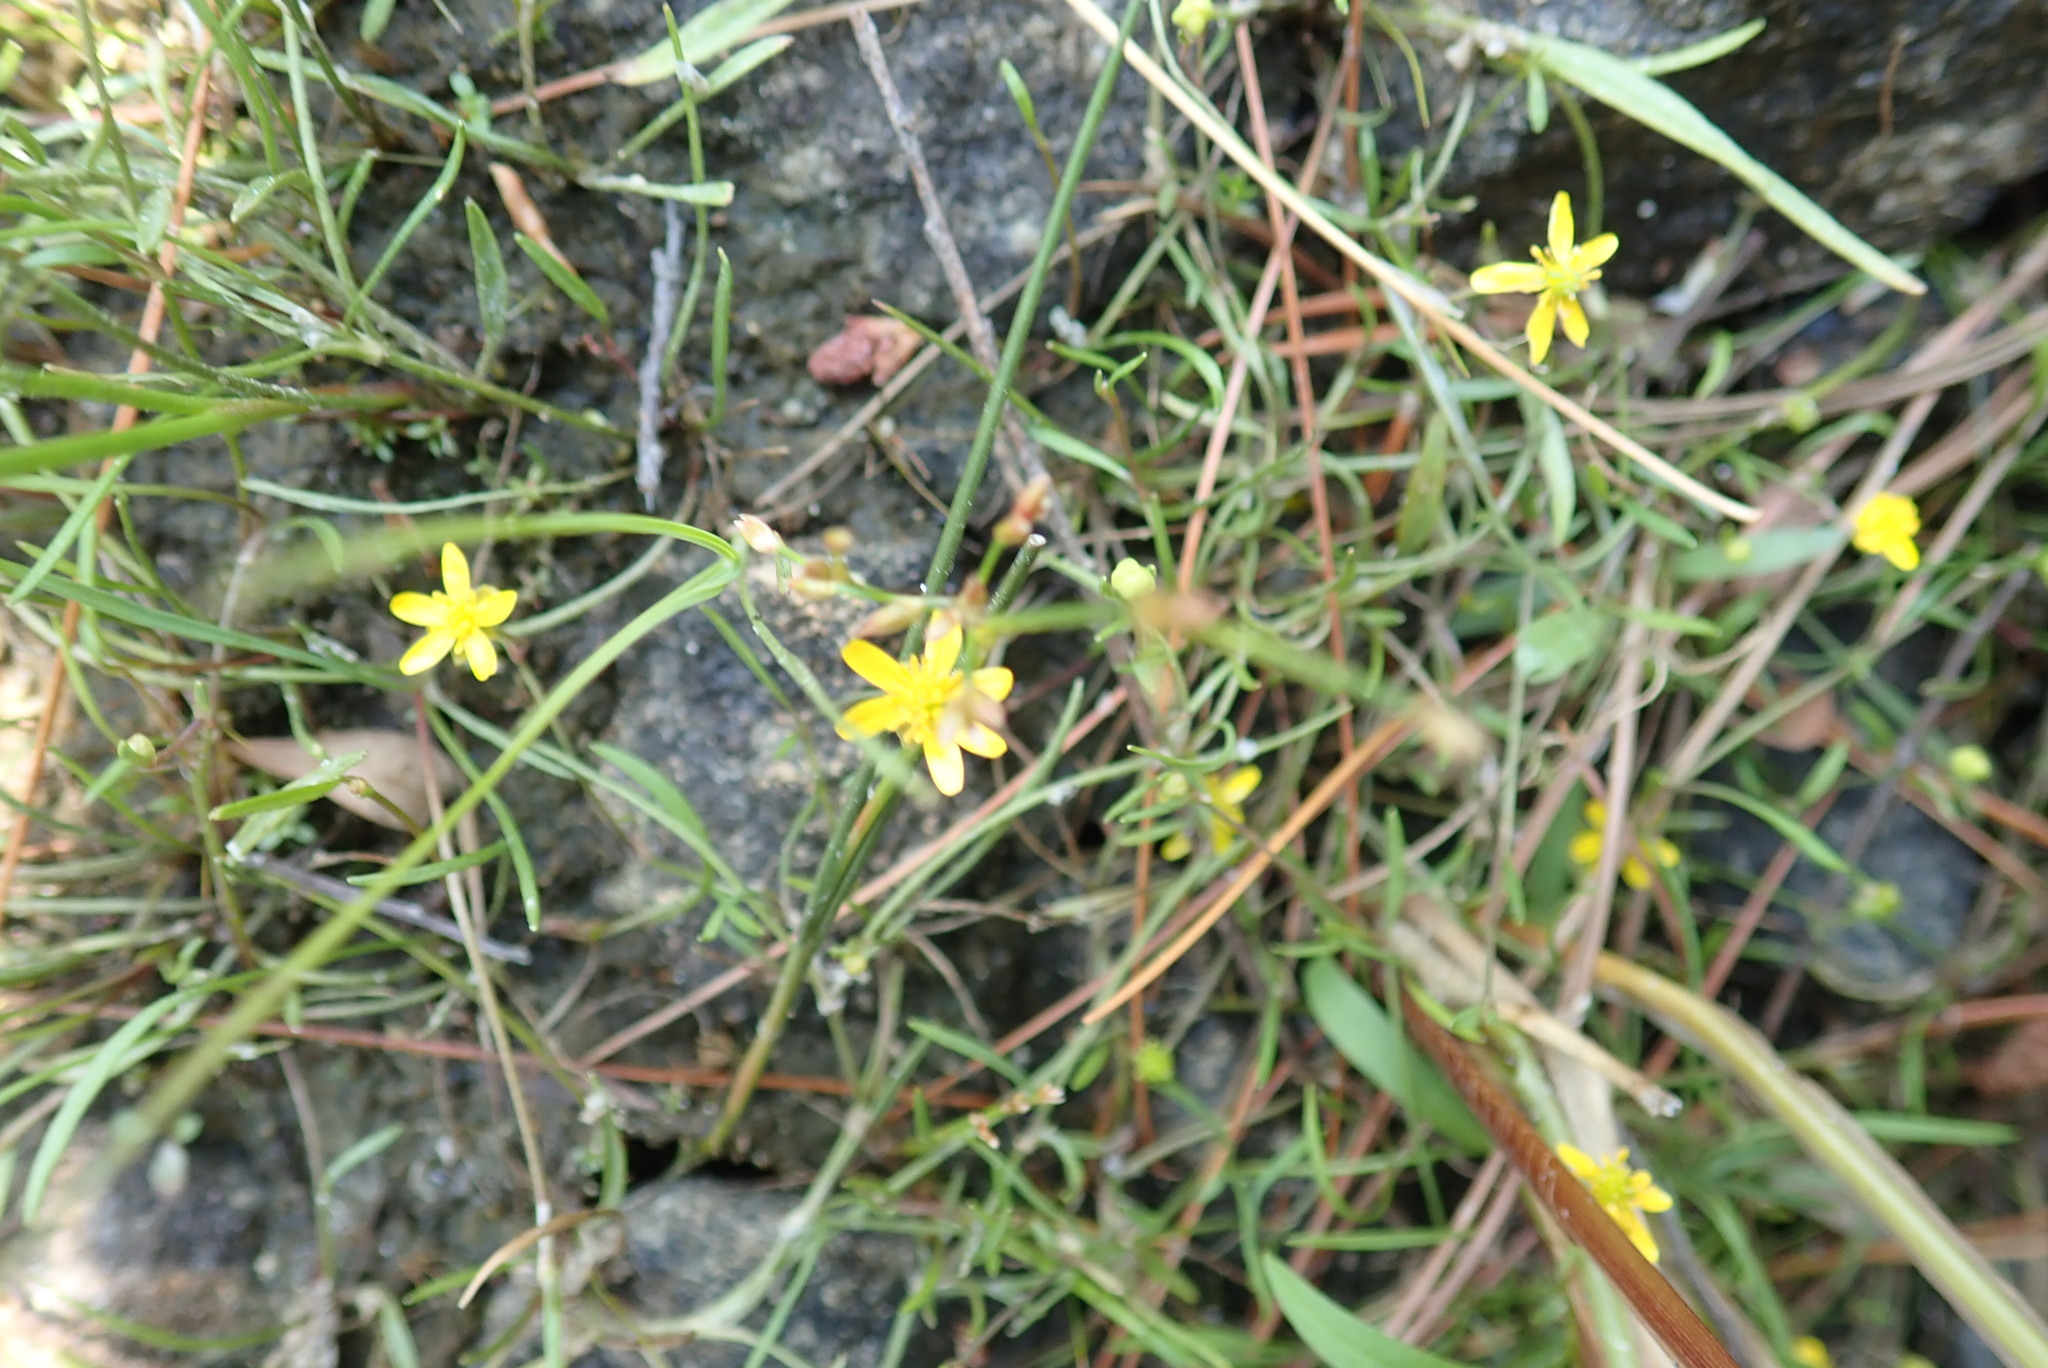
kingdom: Plantae
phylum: Tracheophyta
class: Magnoliopsida
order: Ranunculales
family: Ranunculaceae
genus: Ranunculus
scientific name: Ranunculus reptans
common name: Creeping spearwort
